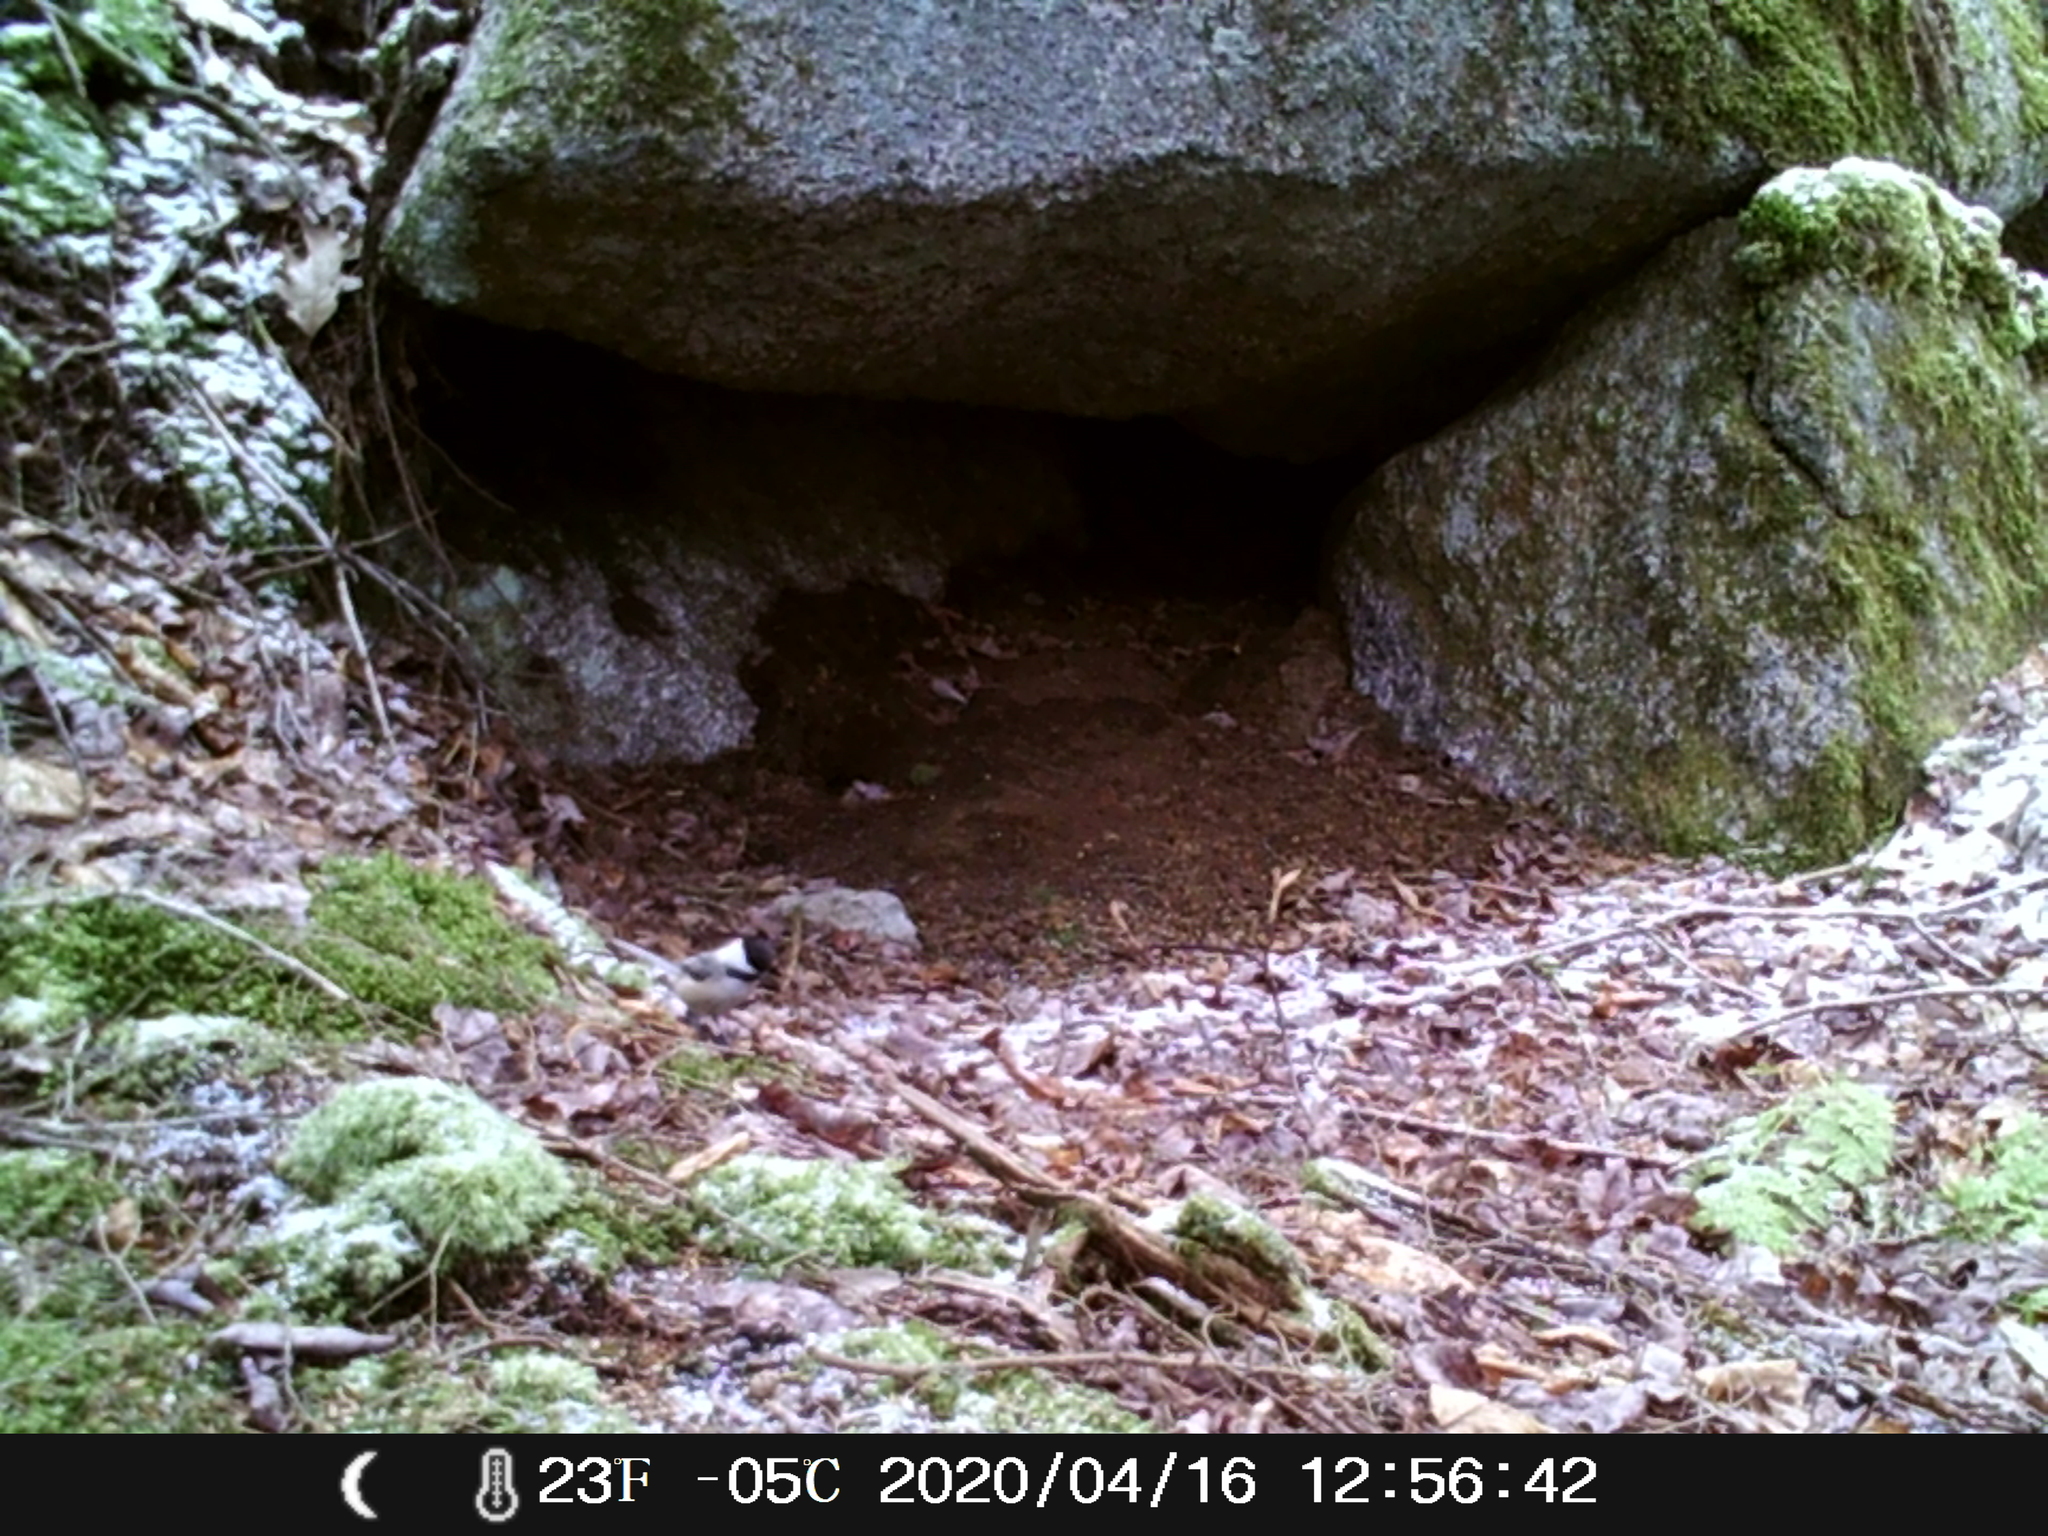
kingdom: Animalia
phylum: Chordata
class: Aves
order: Passeriformes
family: Paridae
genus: Poecile
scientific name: Poecile atricapillus
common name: Black-capped chickadee
